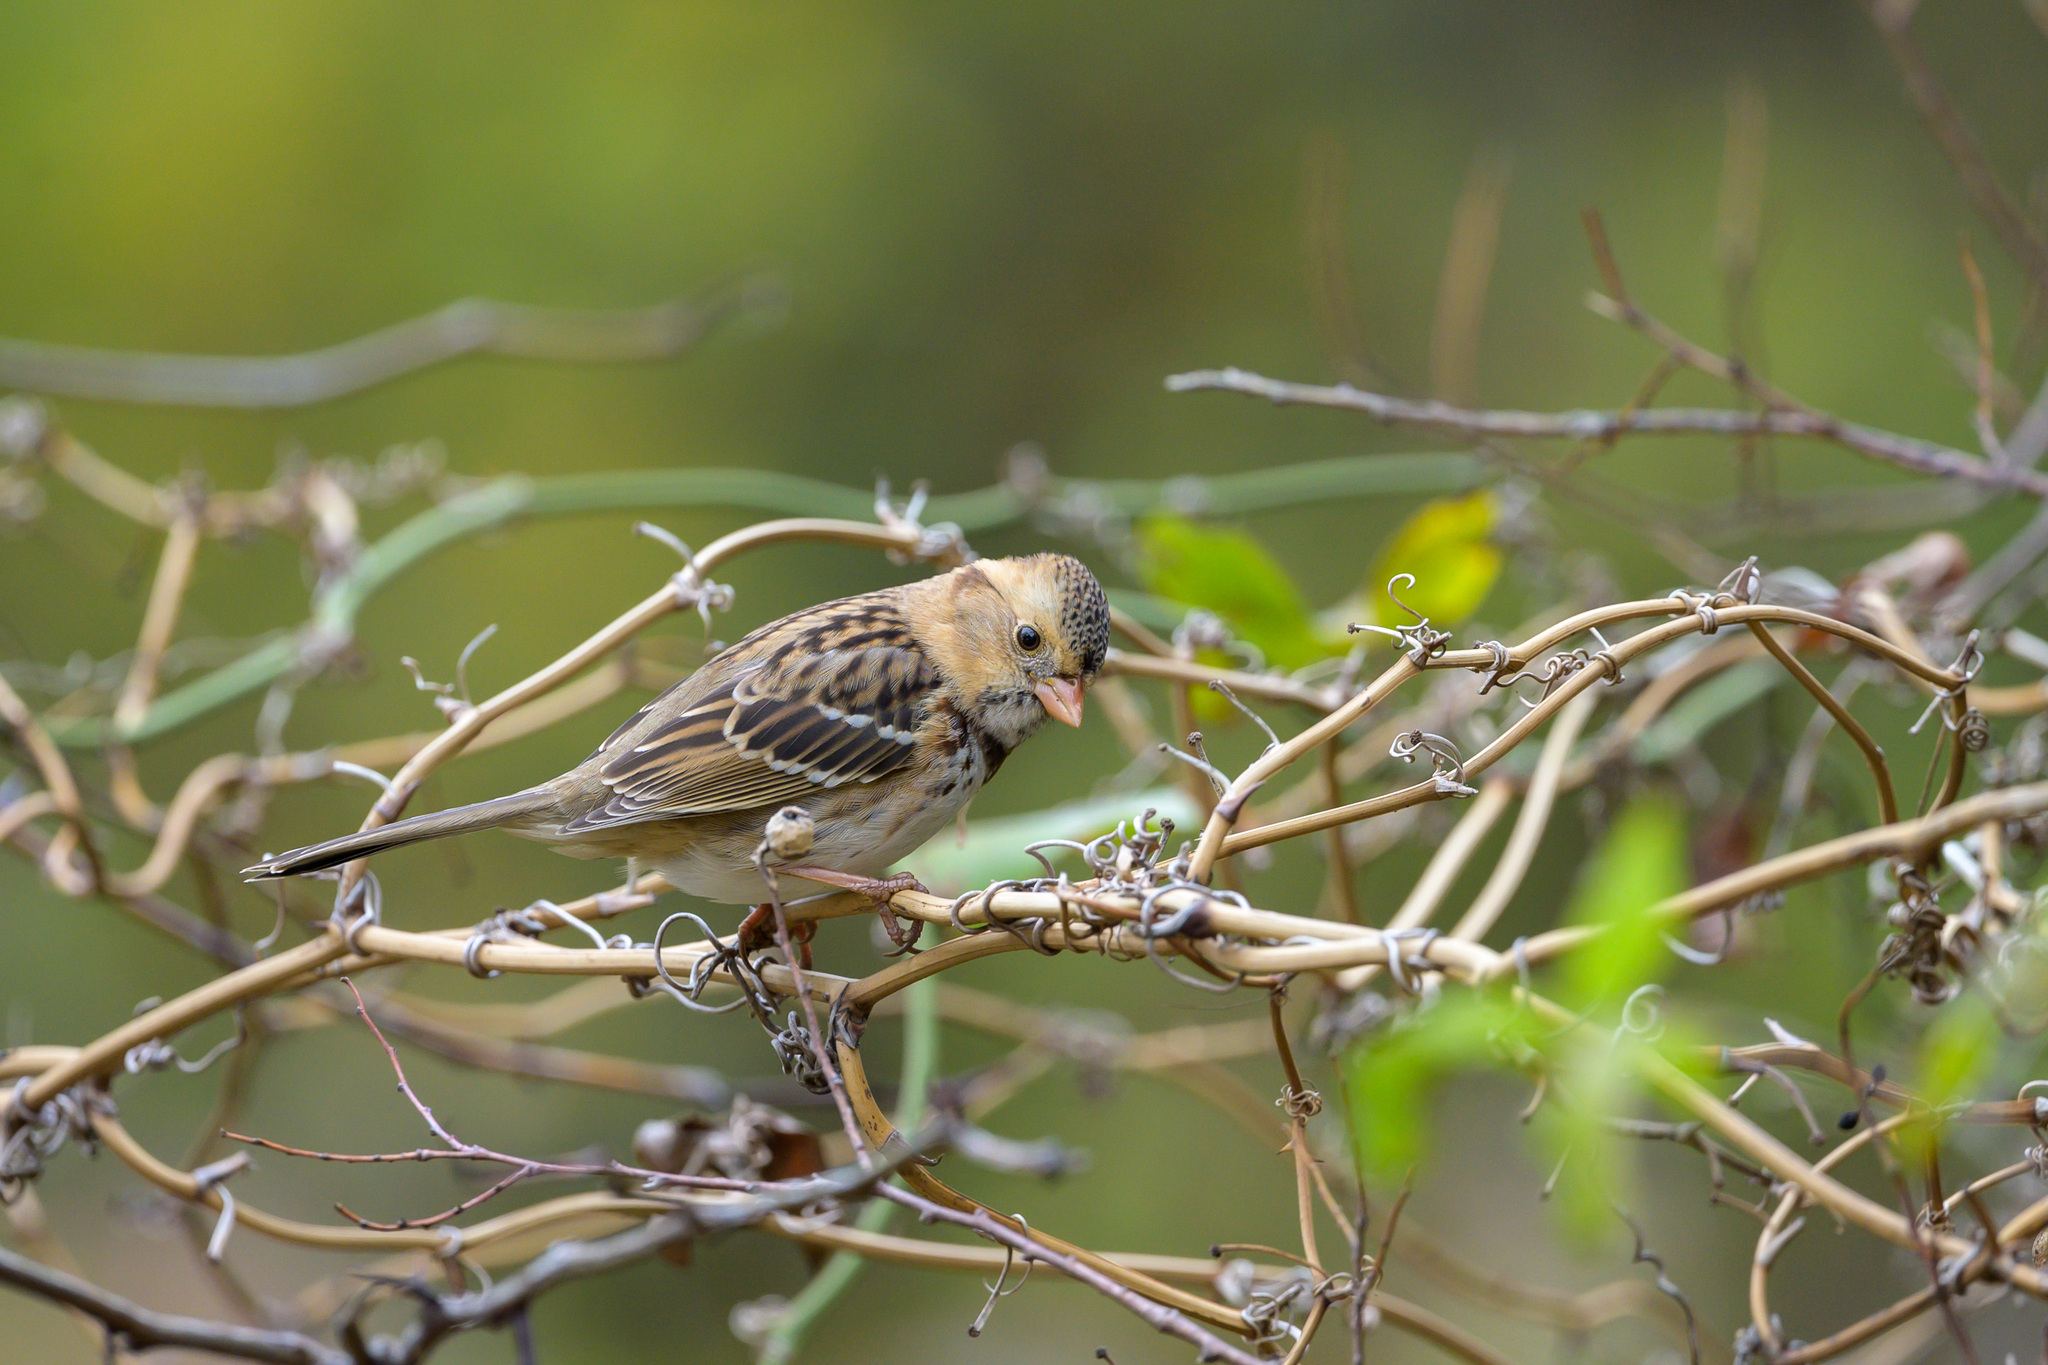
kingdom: Animalia
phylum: Chordata
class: Aves
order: Passeriformes
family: Passerellidae
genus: Zonotrichia
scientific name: Zonotrichia querula
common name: Harris's sparrow
